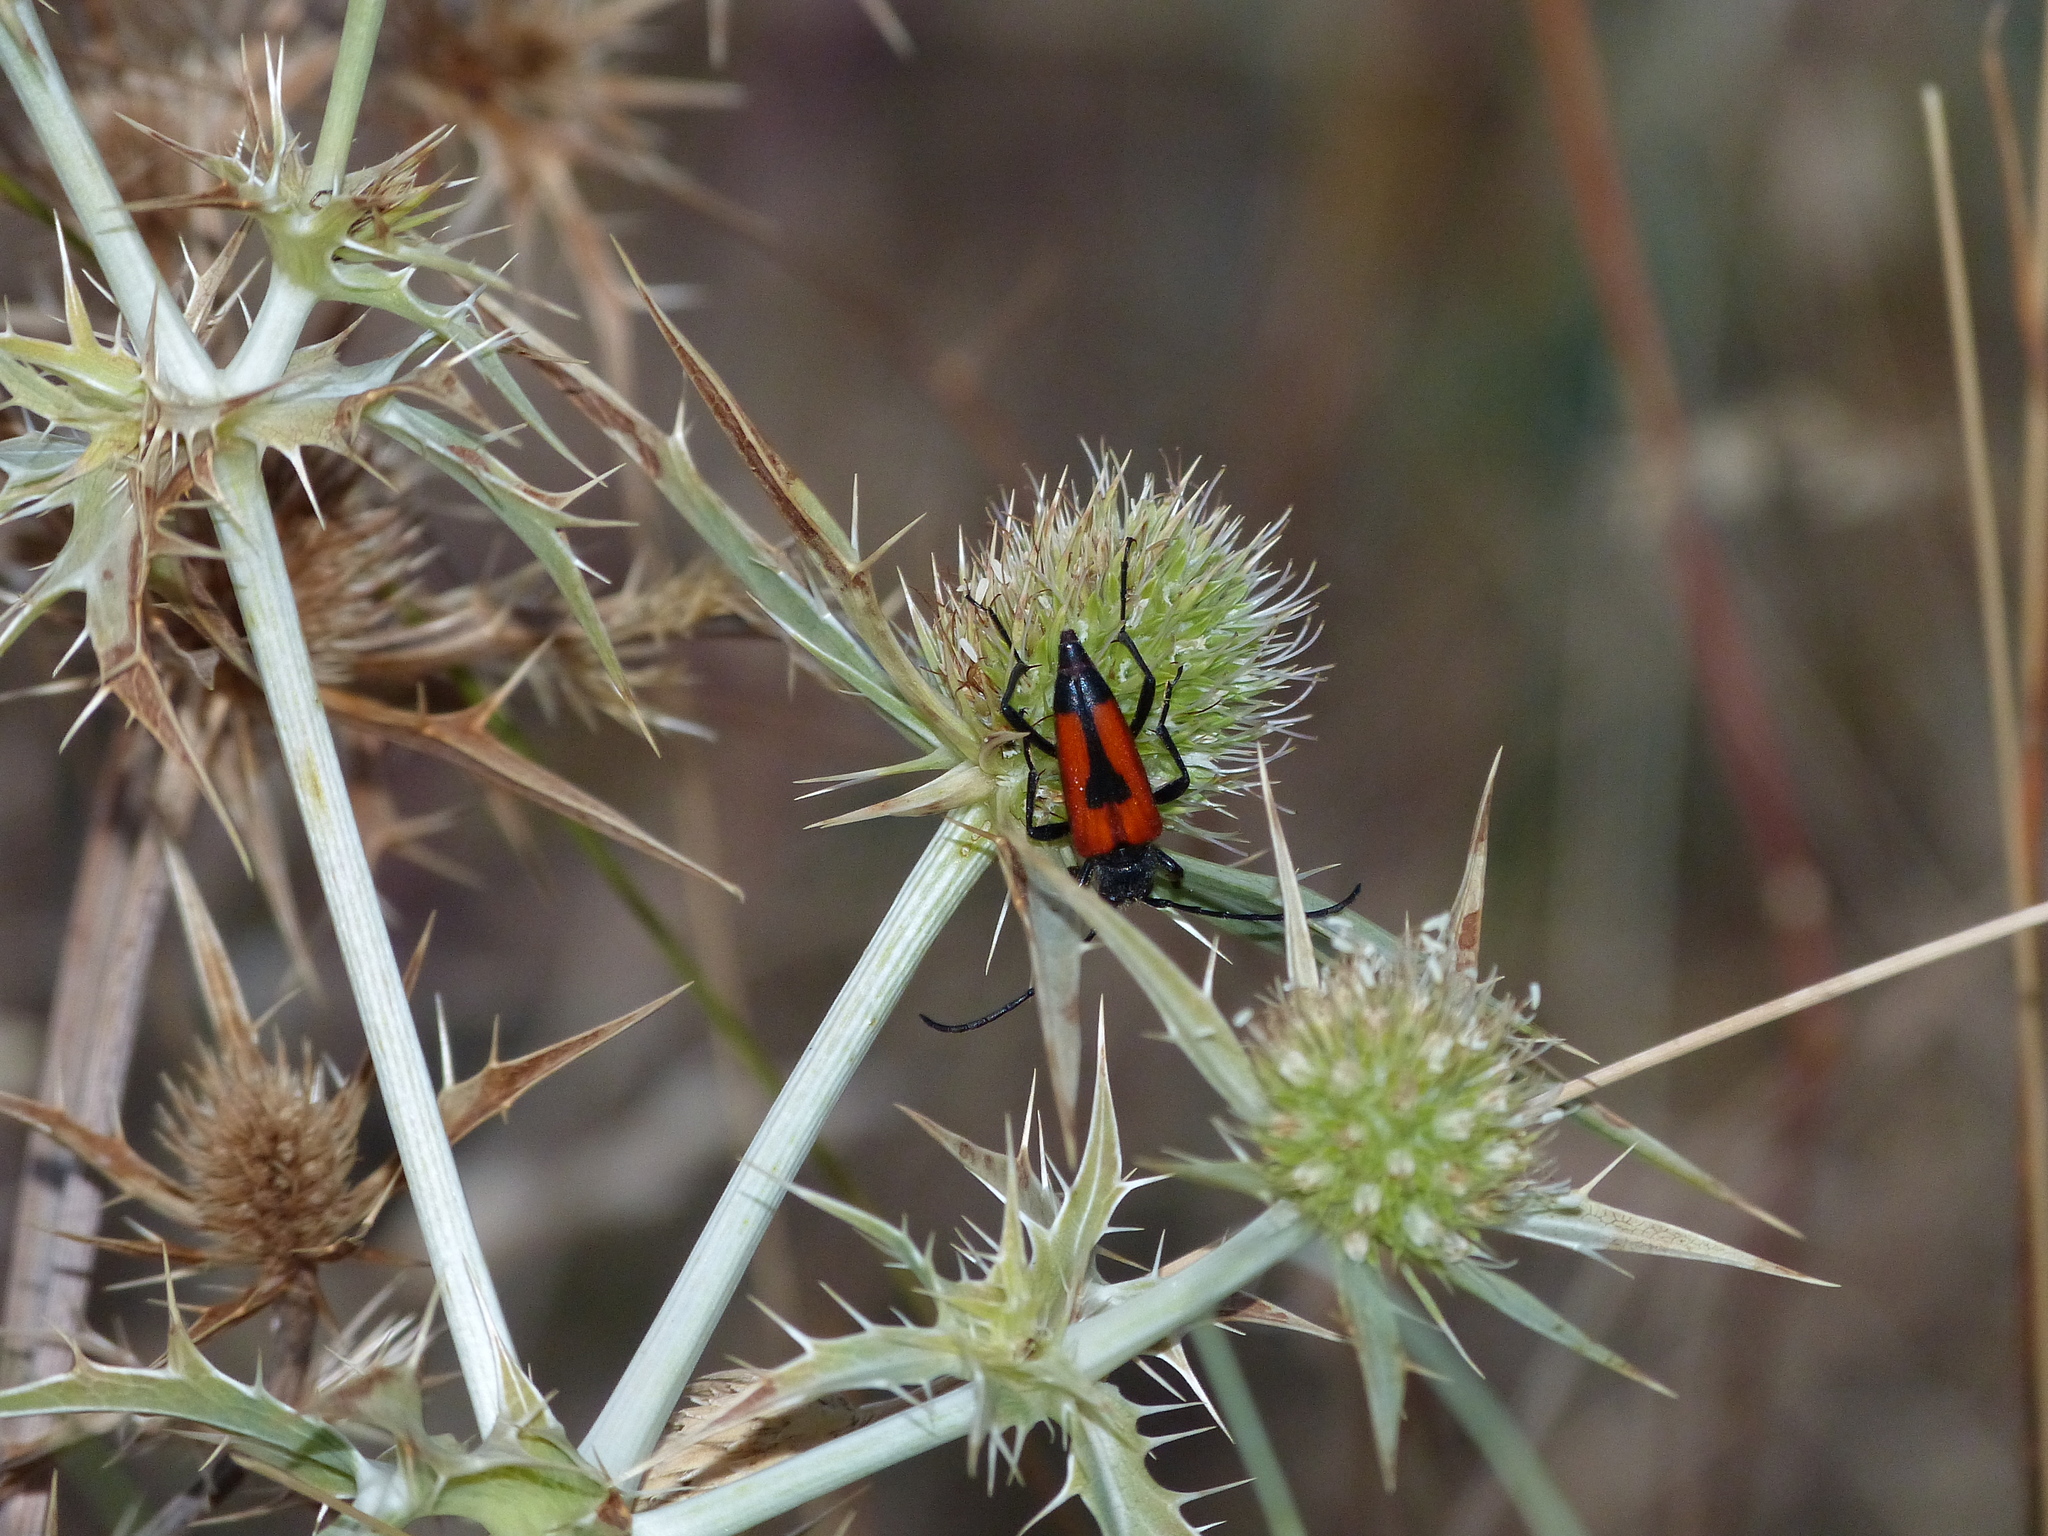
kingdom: Animalia
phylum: Arthropoda
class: Insecta
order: Coleoptera
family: Cerambycidae
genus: Stictoleptura
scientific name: Stictoleptura cordigera
